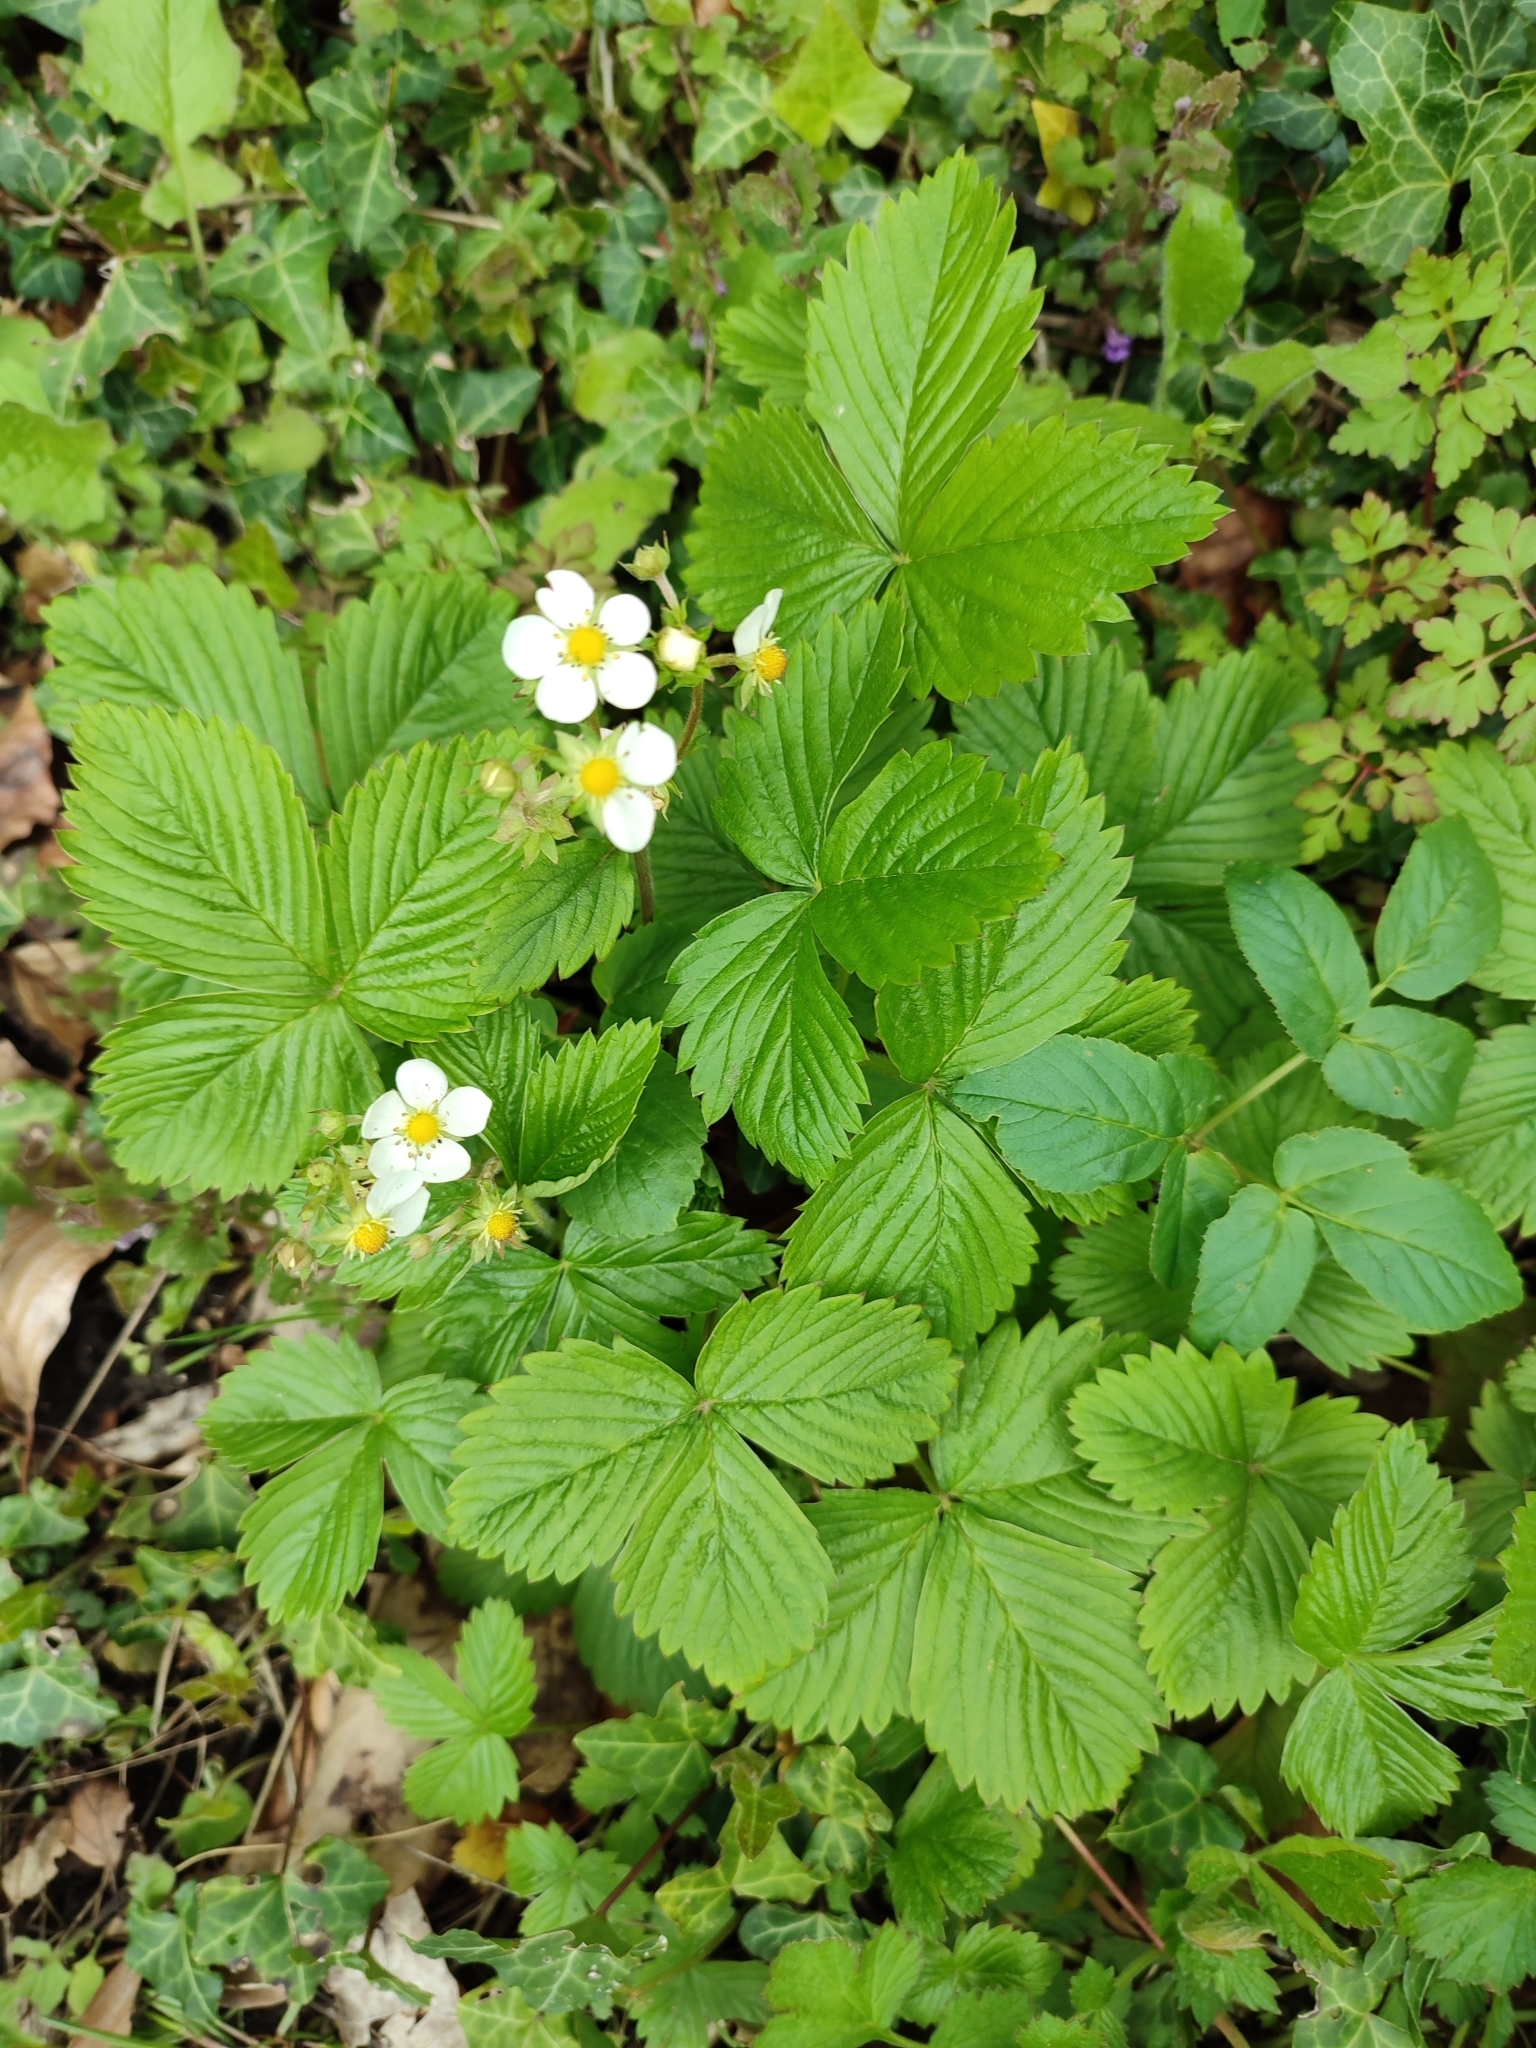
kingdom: Plantae
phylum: Tracheophyta
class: Magnoliopsida
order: Rosales
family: Rosaceae
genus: Fragaria
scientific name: Fragaria vesca
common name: Wild strawberry
